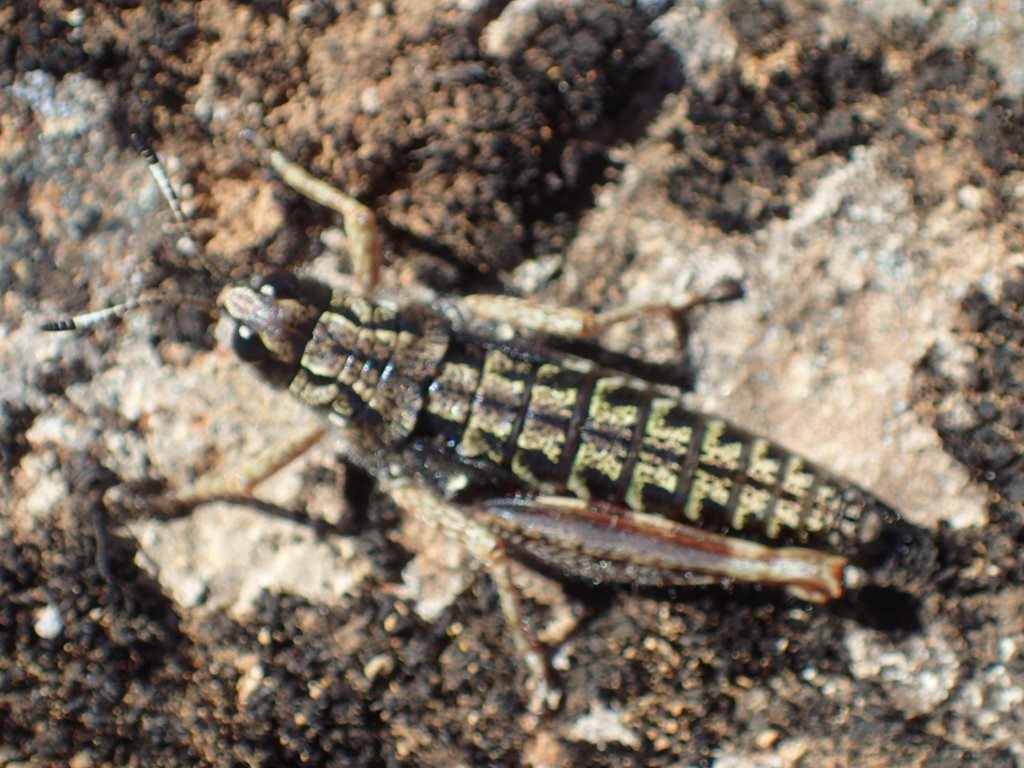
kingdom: Animalia
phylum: Arthropoda
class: Insecta
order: Orthoptera
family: Acrididae
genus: Tasmanalpina
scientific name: Tasmanalpina clavata
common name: Tasmanian velvet grasshopper
